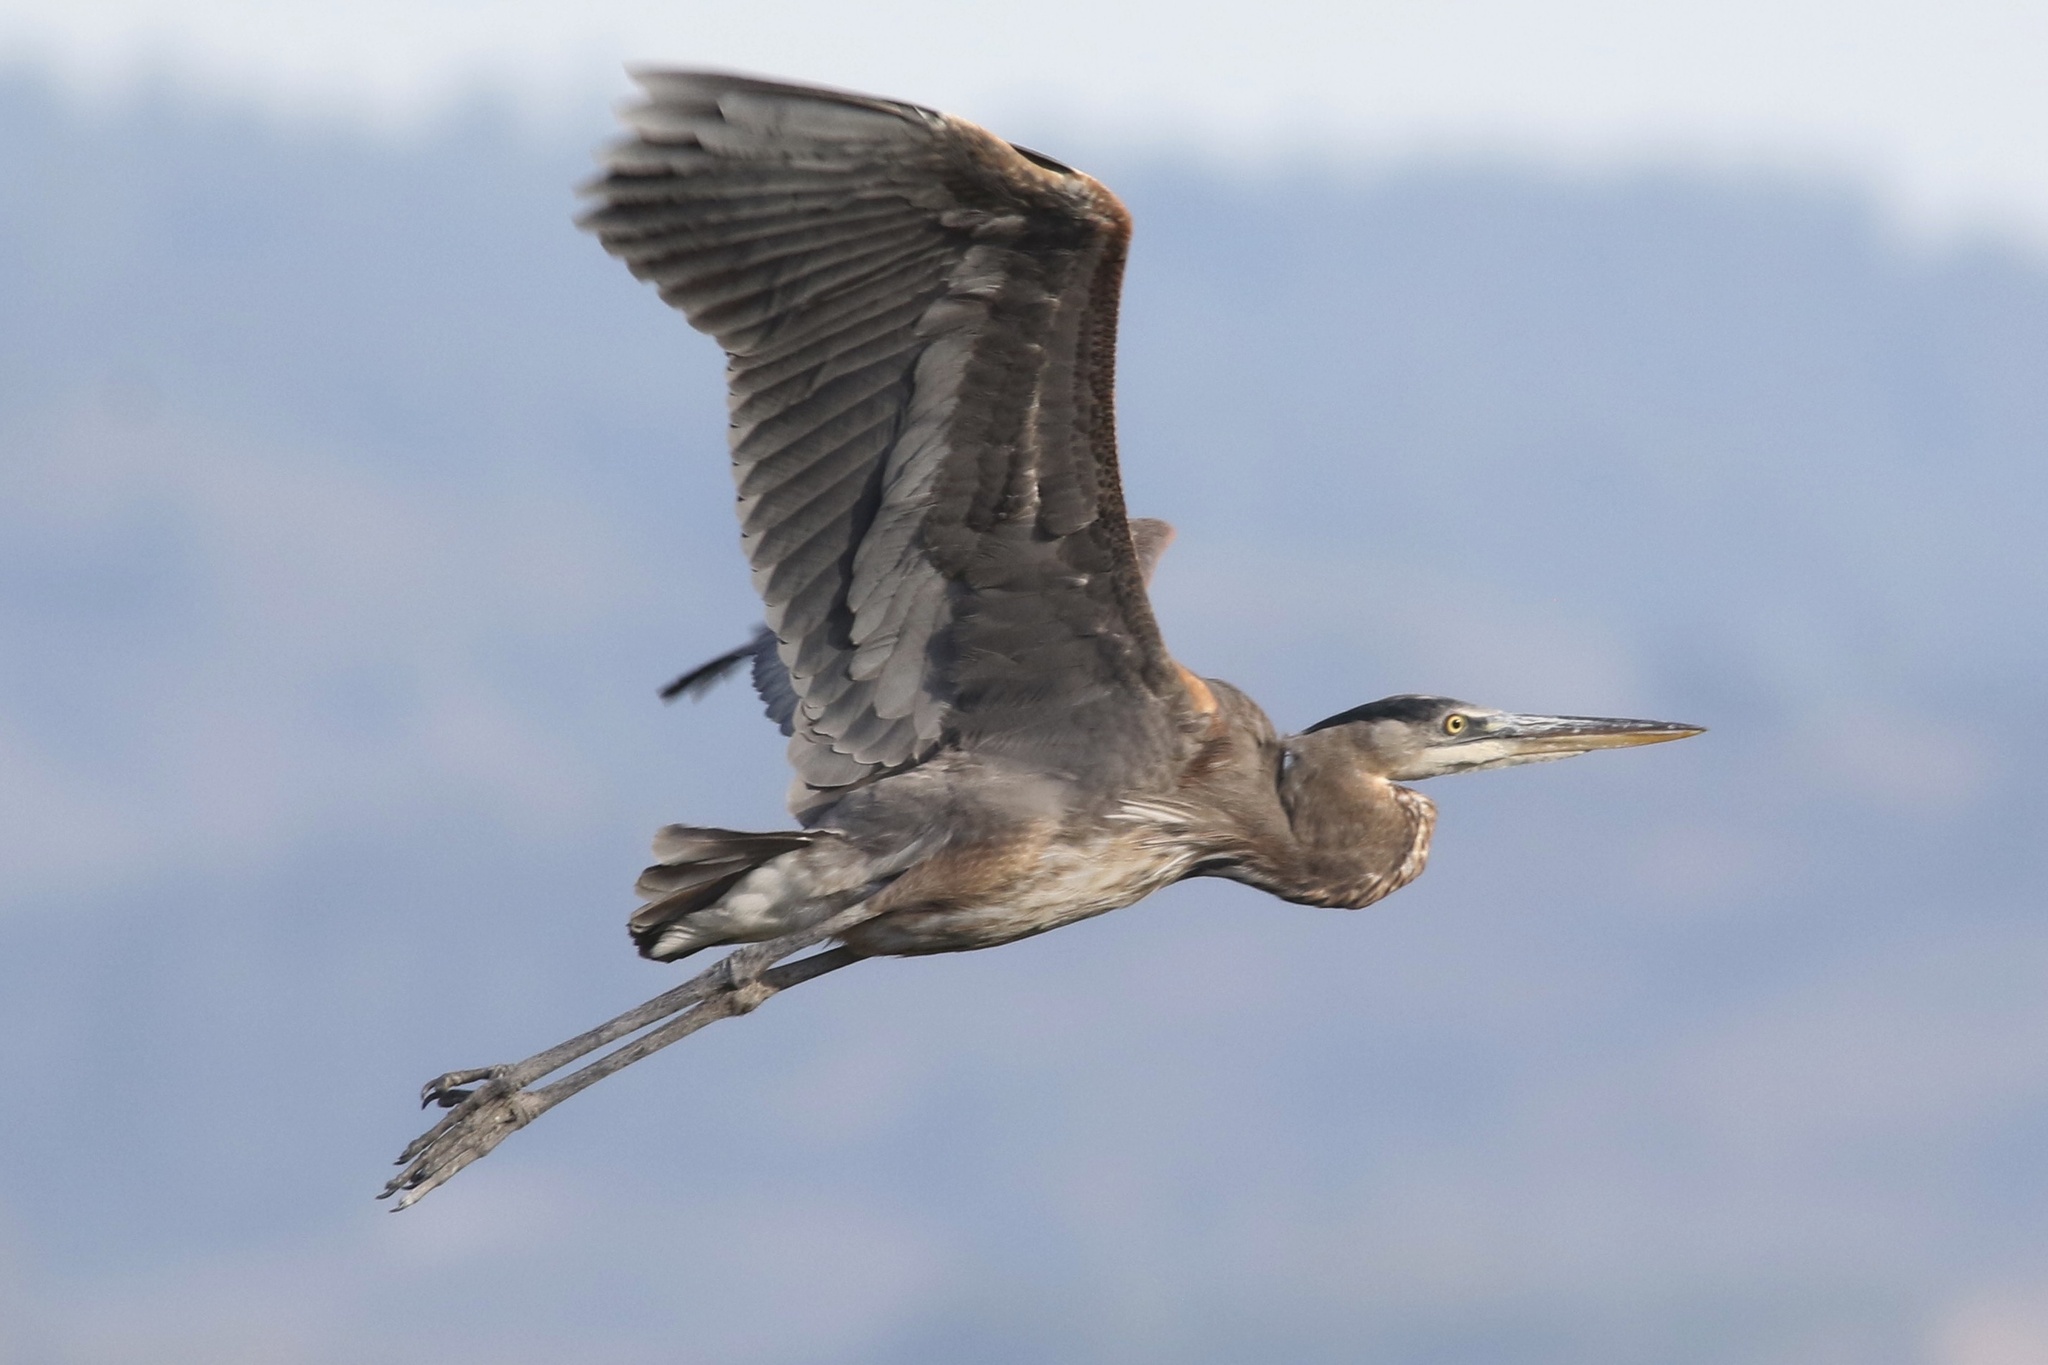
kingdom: Animalia
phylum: Chordata
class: Aves
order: Pelecaniformes
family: Ardeidae
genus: Ardea
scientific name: Ardea herodias
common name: Great blue heron
